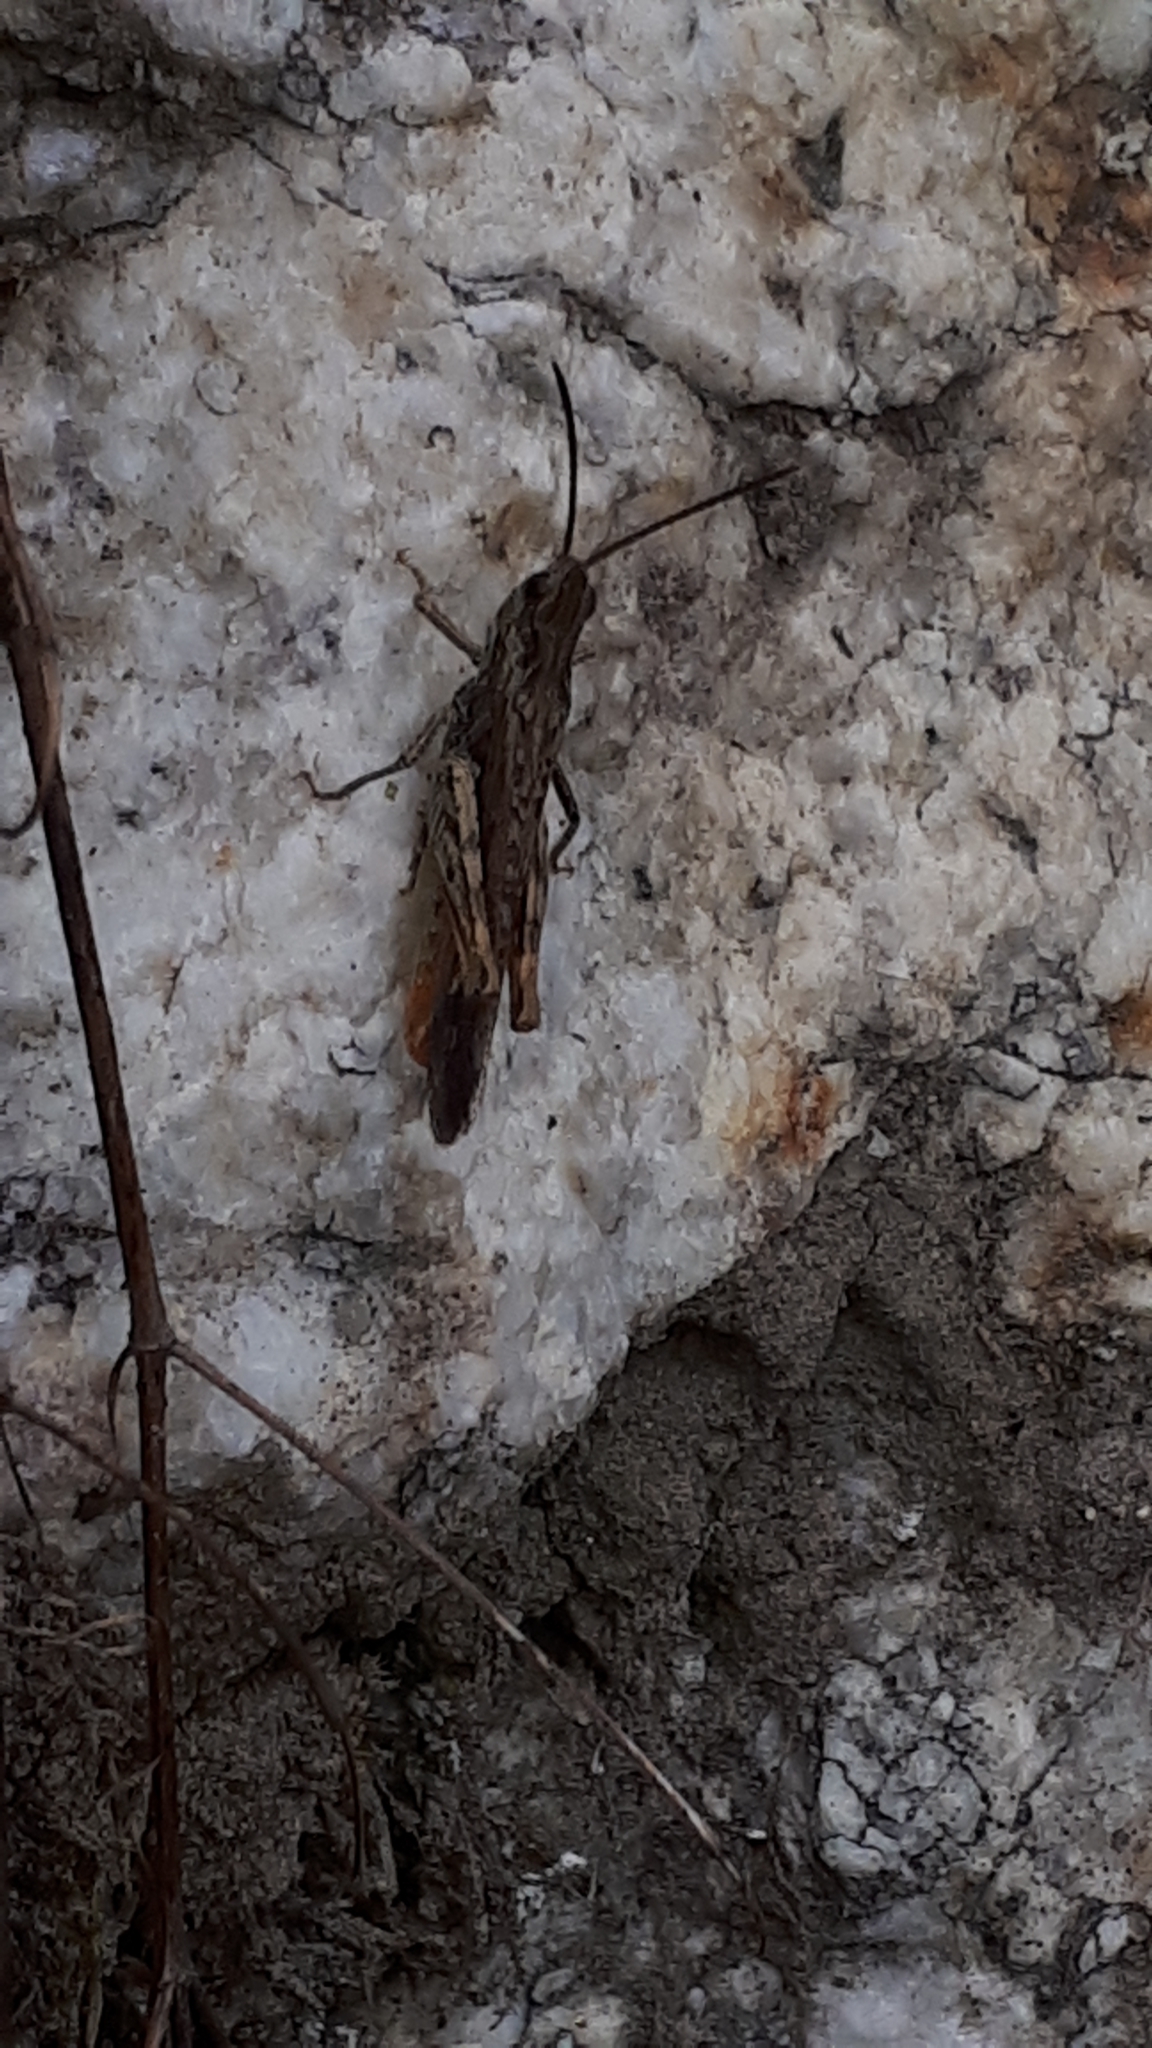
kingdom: Animalia
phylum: Arthropoda
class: Insecta
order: Orthoptera
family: Acrididae
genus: Chorthippus
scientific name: Chorthippus brunneus
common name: Field grasshopper
